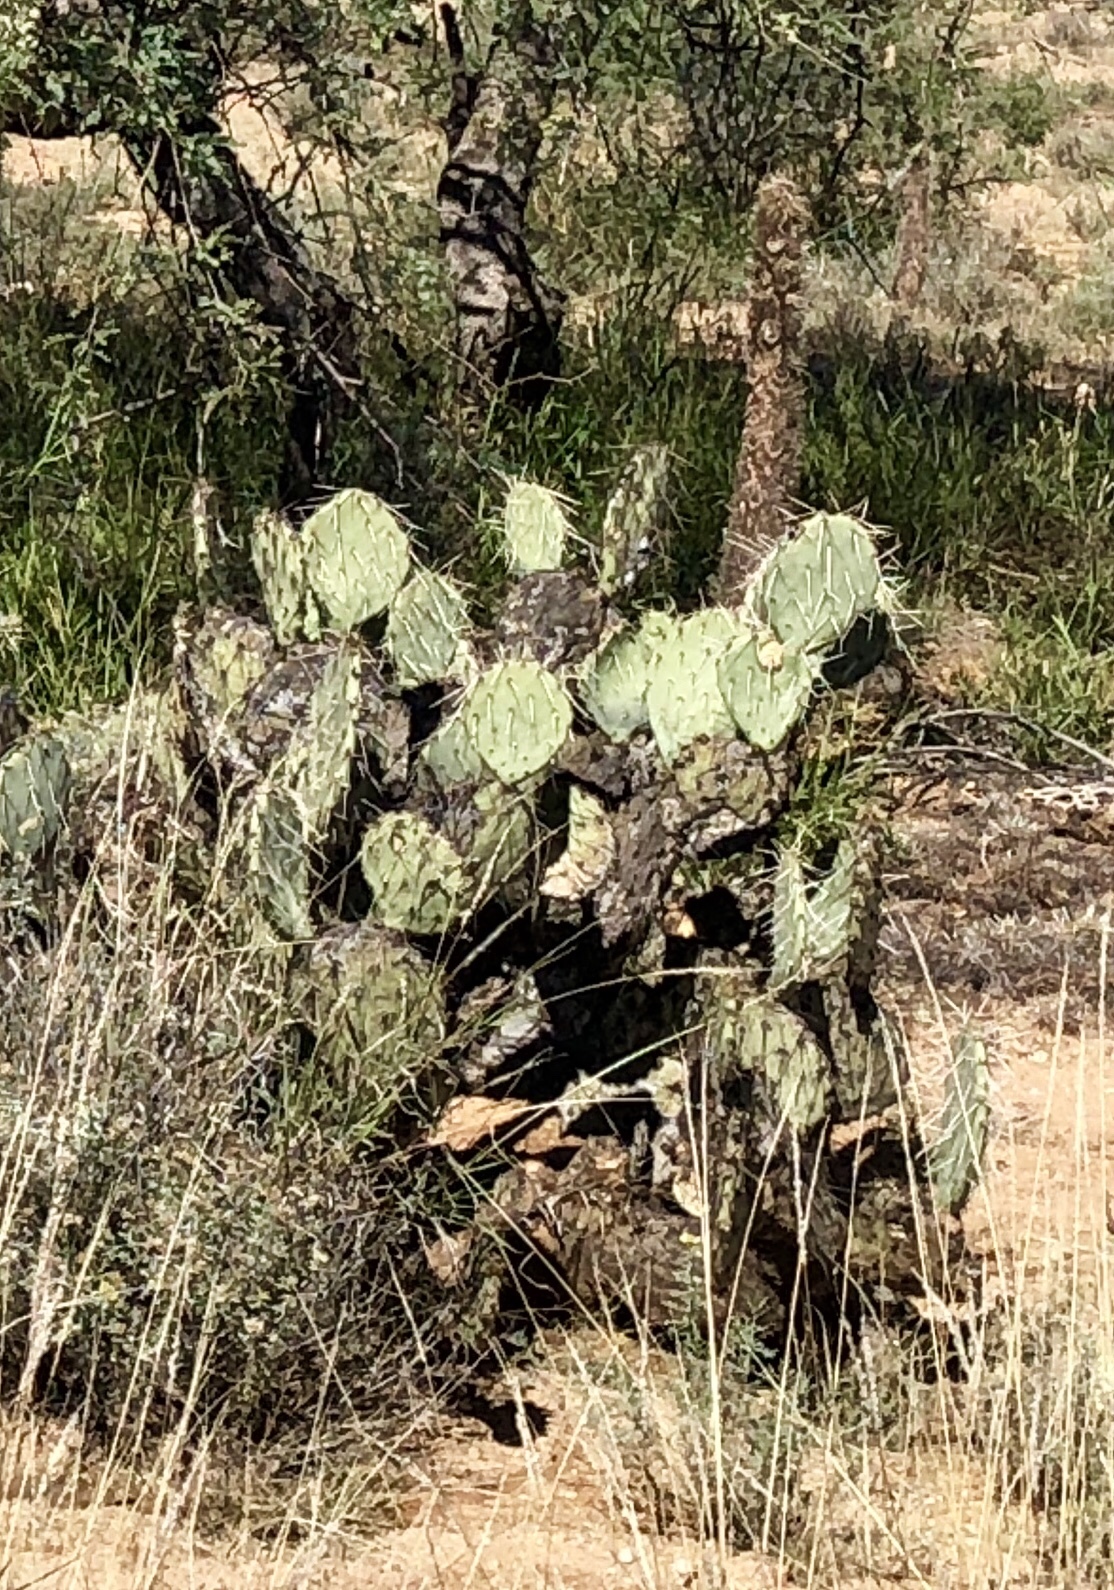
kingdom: Plantae
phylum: Tracheophyta
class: Magnoliopsida
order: Caryophyllales
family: Cactaceae
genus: Opuntia
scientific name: Opuntia engelmannii
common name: Cactus-apple
